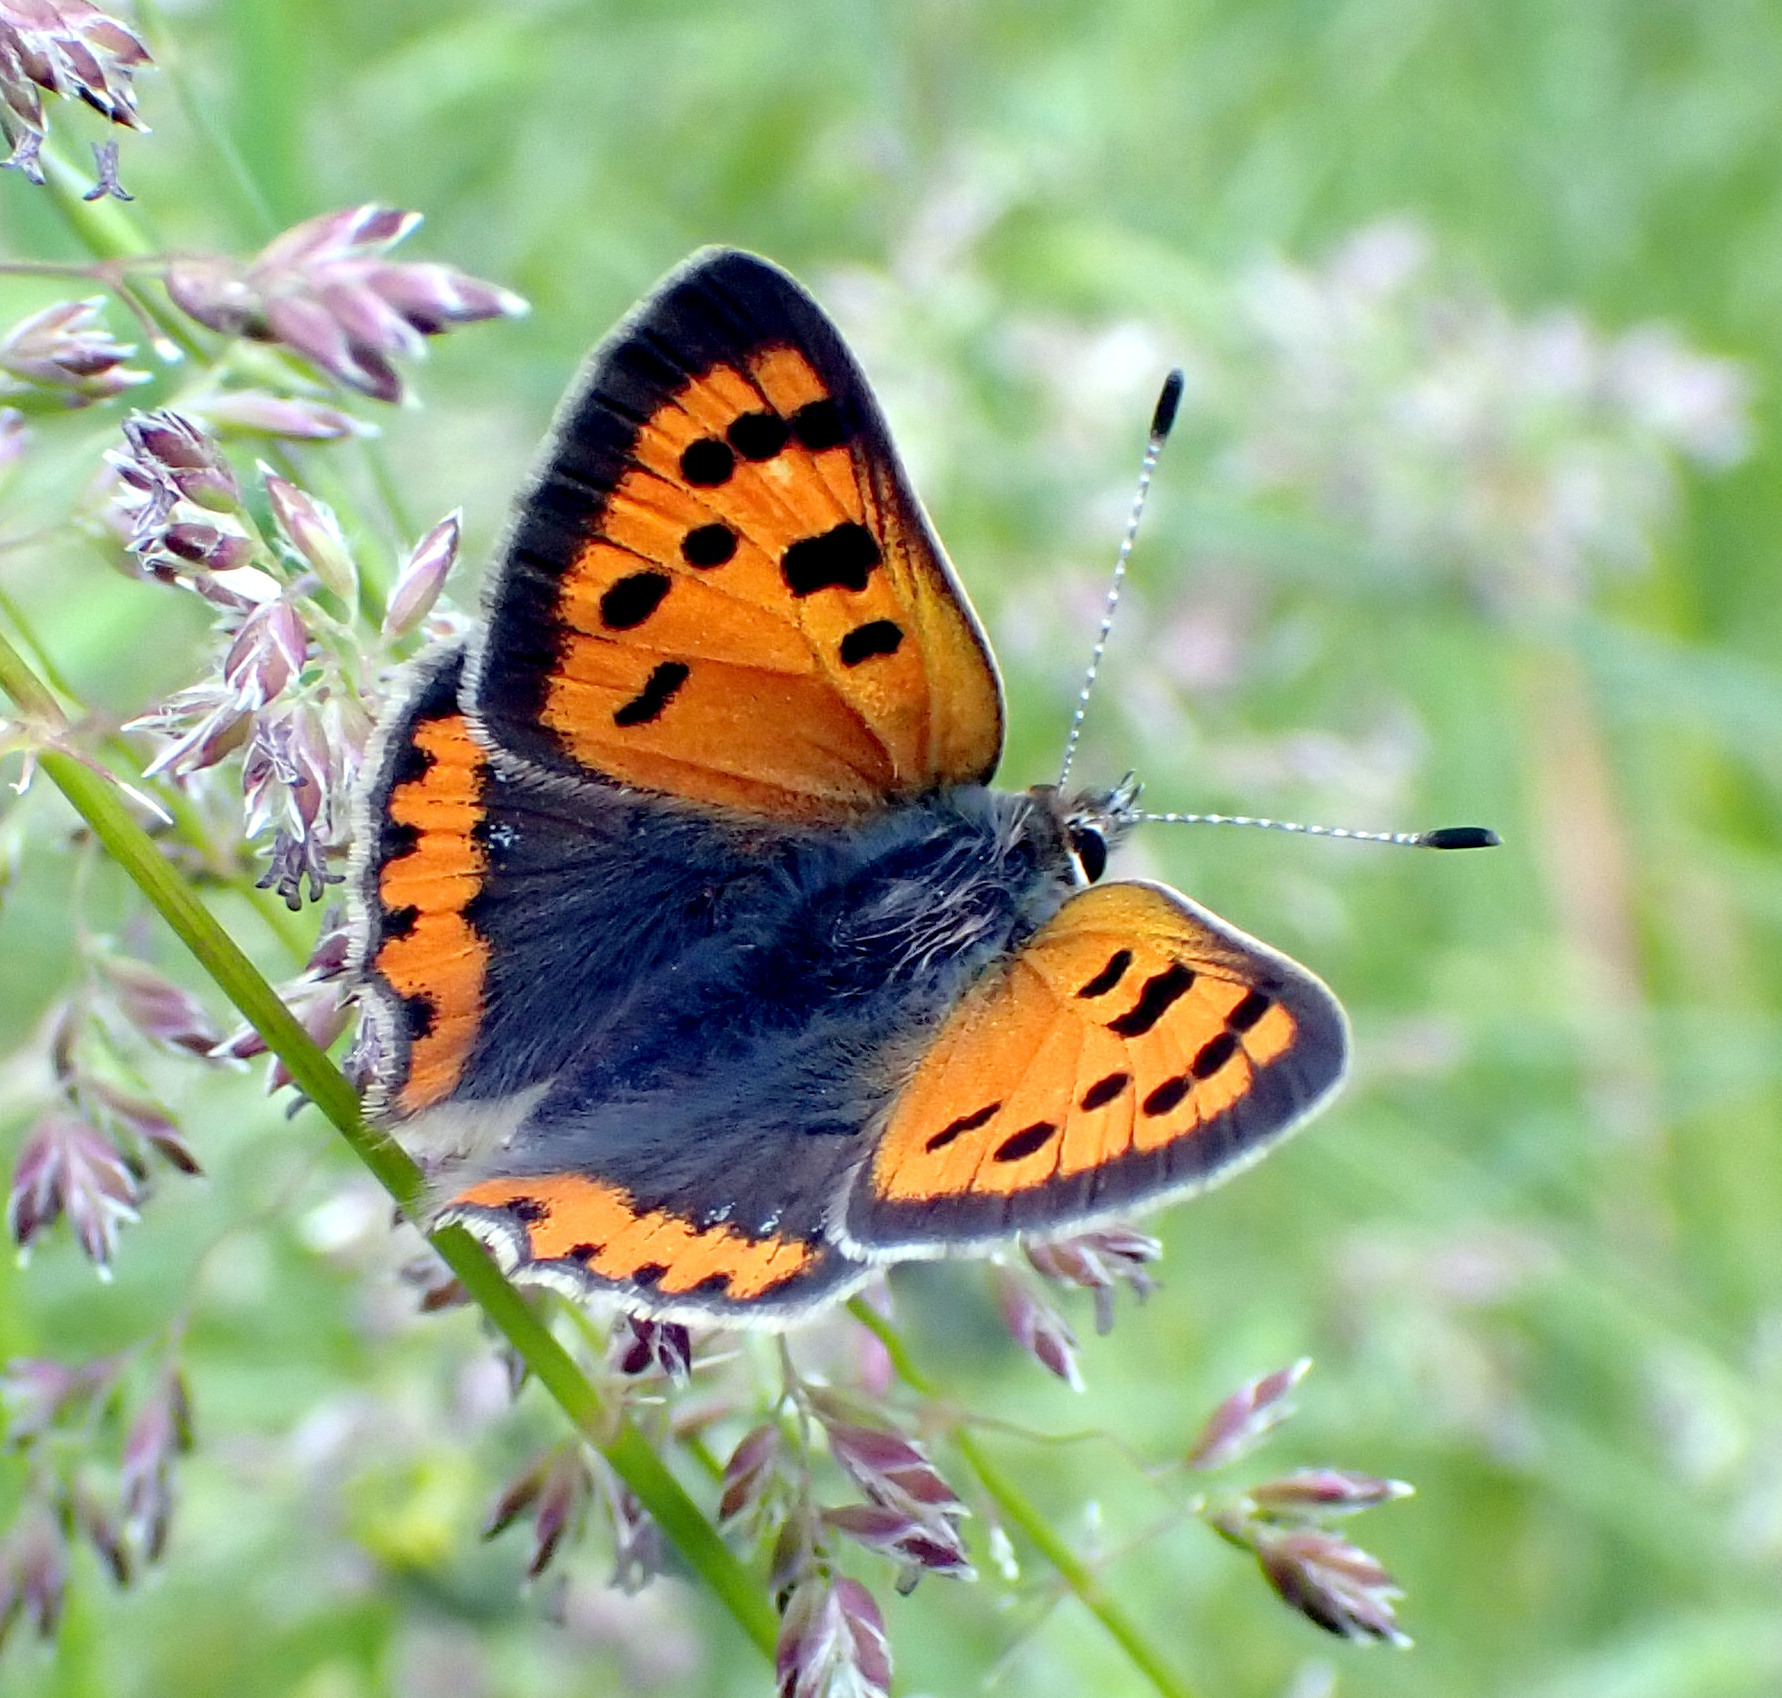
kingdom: Animalia
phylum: Arthropoda
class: Insecta
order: Lepidoptera
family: Lycaenidae
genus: Lycaena
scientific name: Lycaena phlaeas
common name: Small copper
